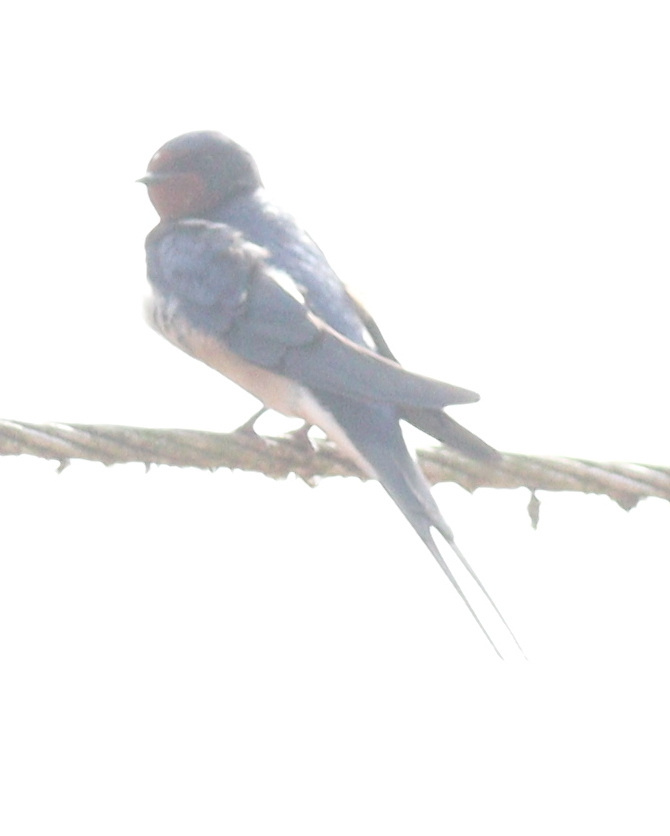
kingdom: Animalia
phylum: Chordata
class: Aves
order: Passeriformes
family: Hirundinidae
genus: Hirundo
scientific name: Hirundo rustica
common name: Barn swallow
